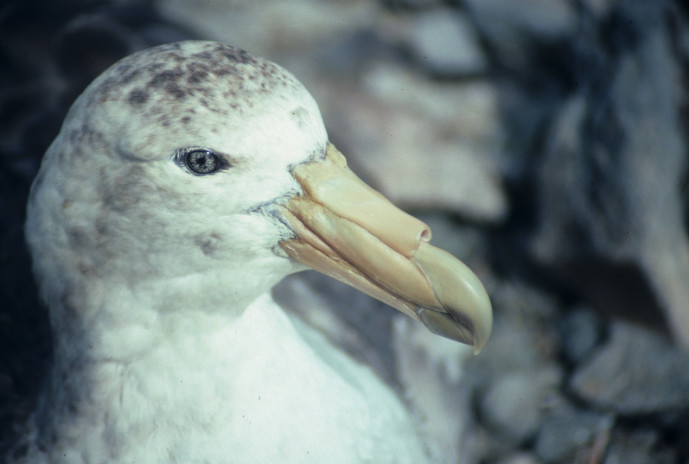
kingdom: Animalia
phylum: Chordata
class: Aves
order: Procellariiformes
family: Procellariidae
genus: Macronectes
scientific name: Macronectes giganteus
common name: Southern giant petrel
